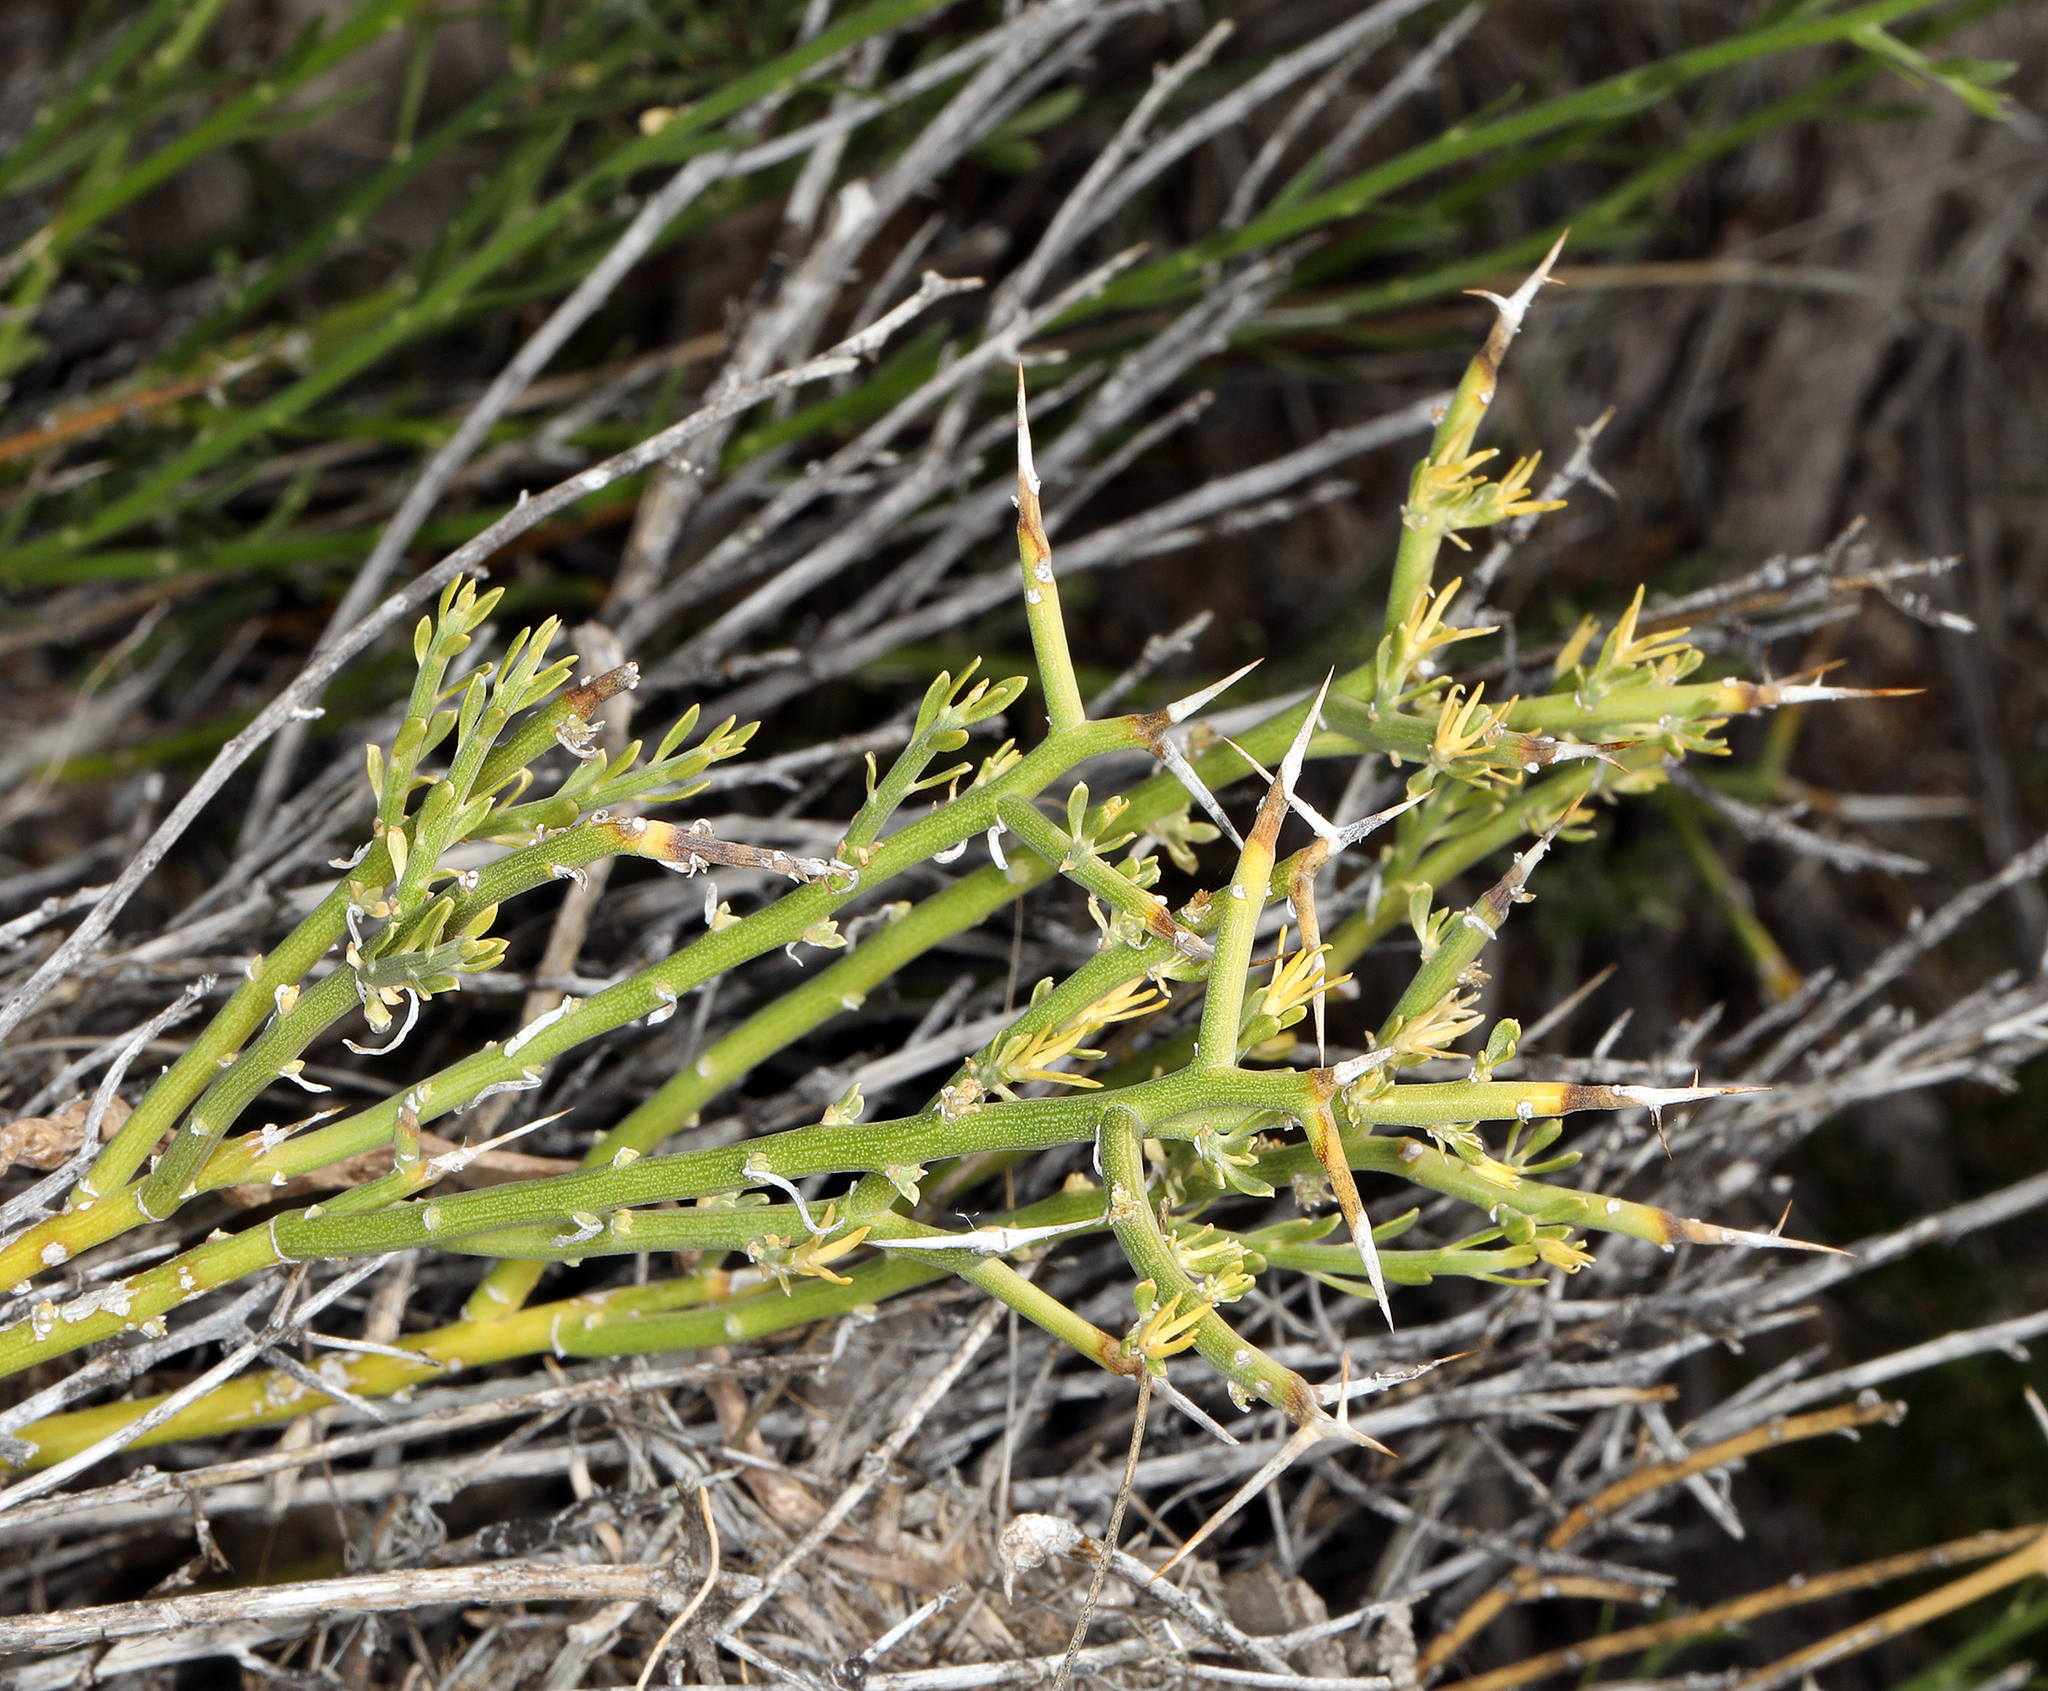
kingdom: Plantae
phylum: Tracheophyta
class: Magnoliopsida
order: Lamiales
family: Oleaceae
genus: Menodora
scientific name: Menodora spinescens
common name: Spiny menodora
